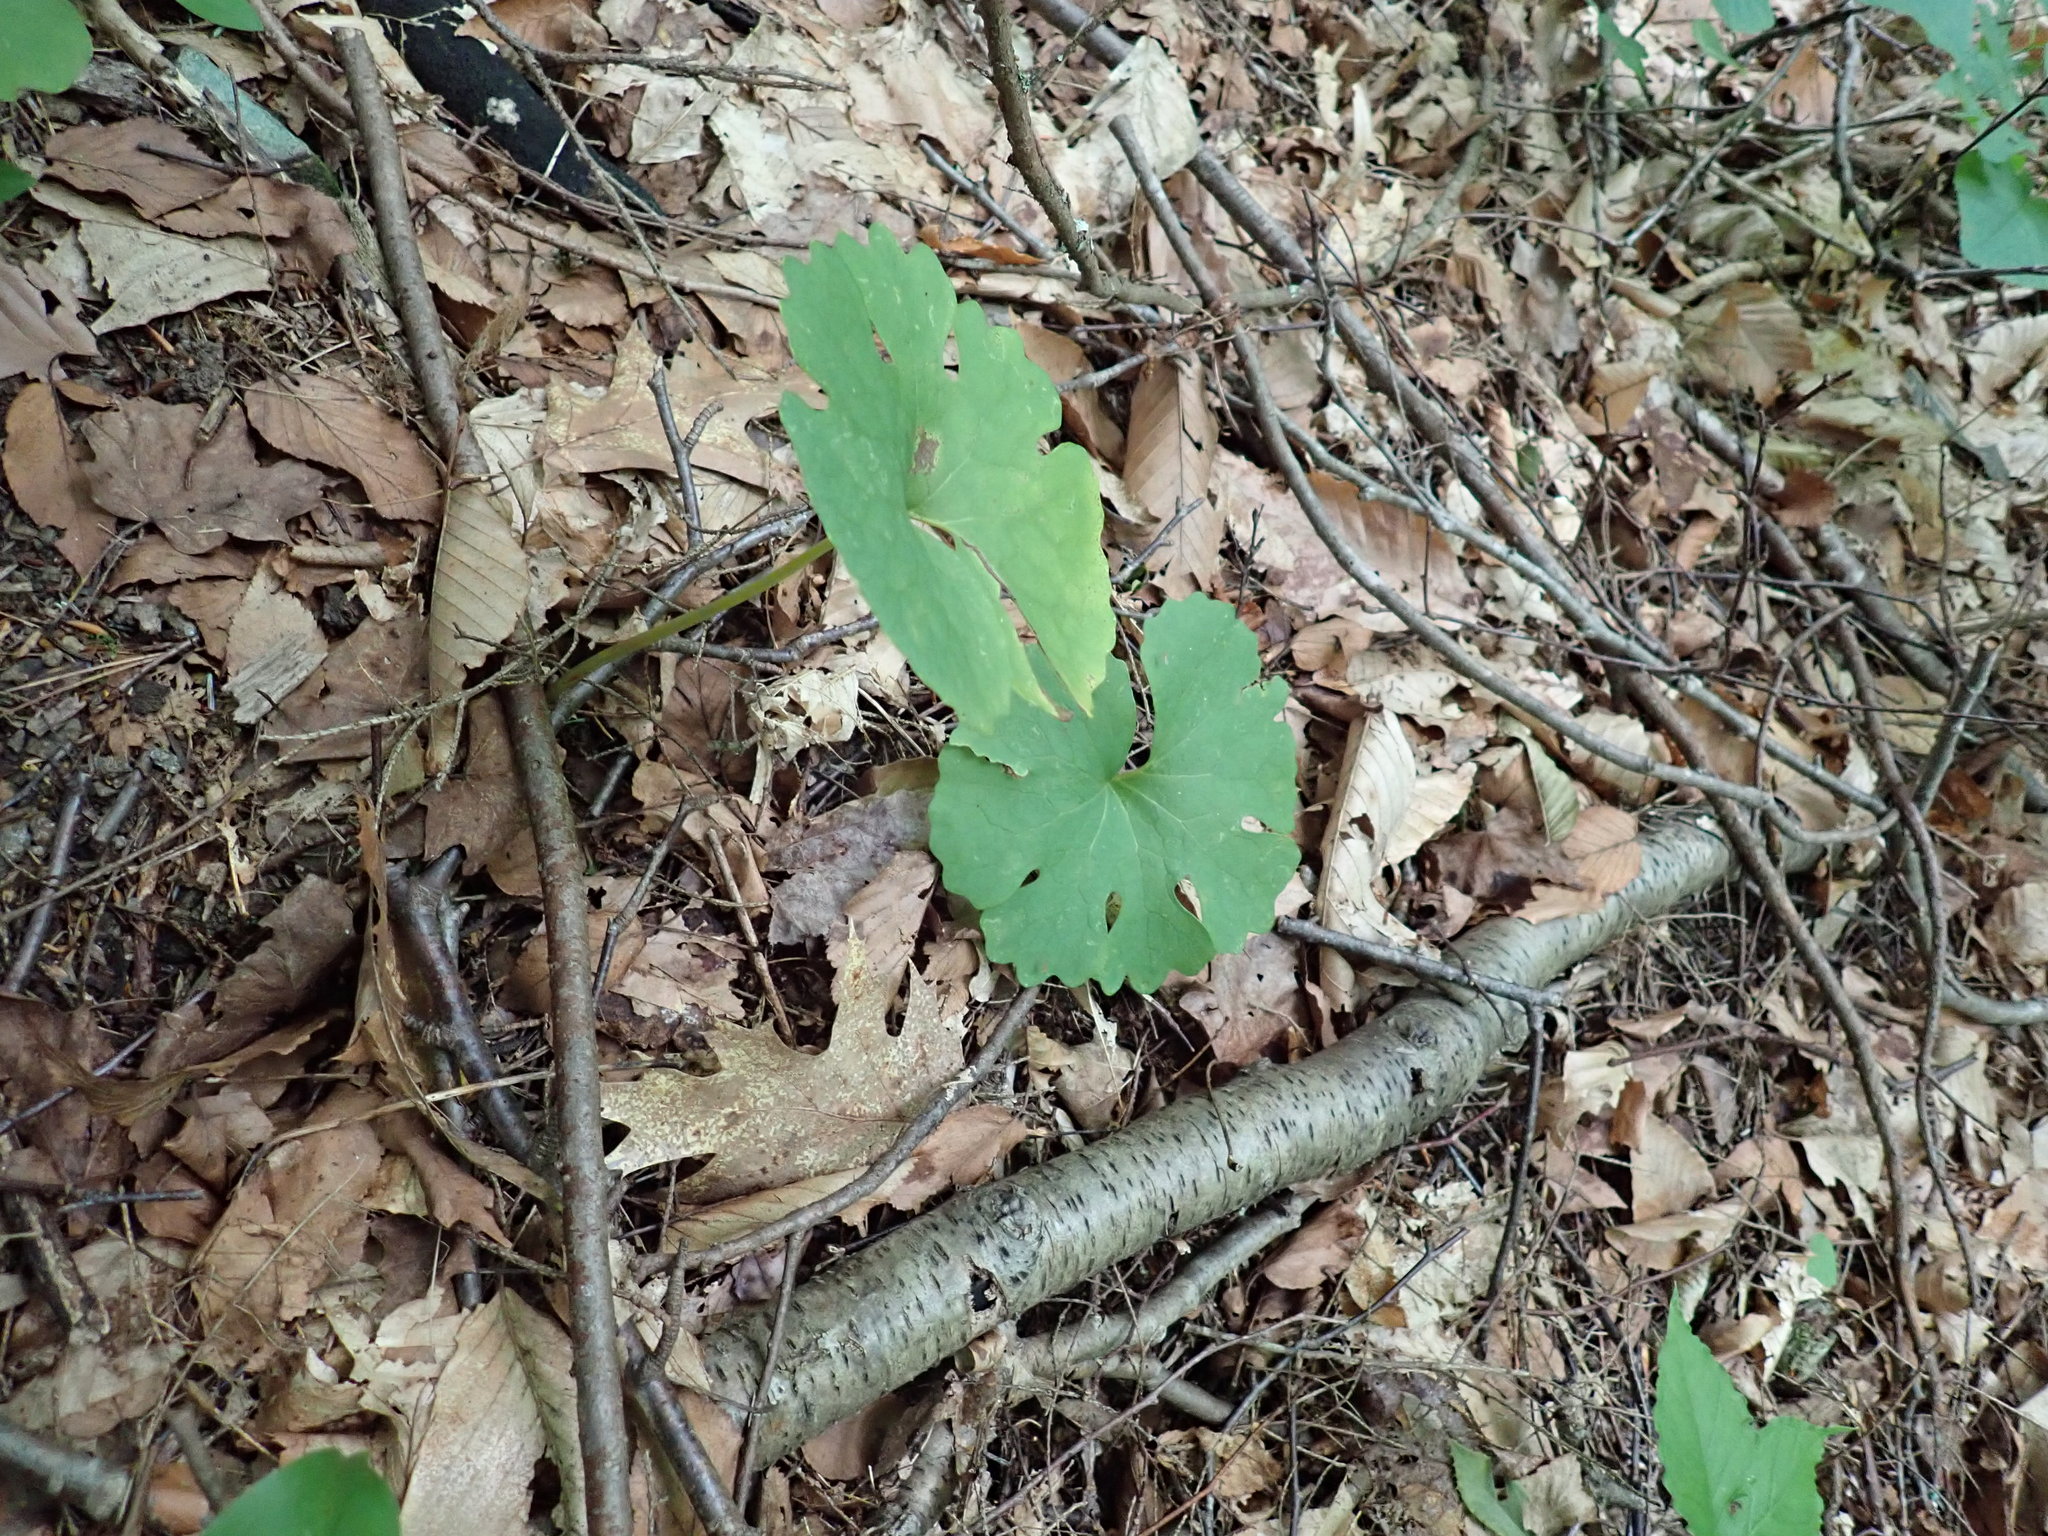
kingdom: Plantae
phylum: Tracheophyta
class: Magnoliopsida
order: Ranunculales
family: Papaveraceae
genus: Sanguinaria
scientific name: Sanguinaria canadensis
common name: Bloodroot
